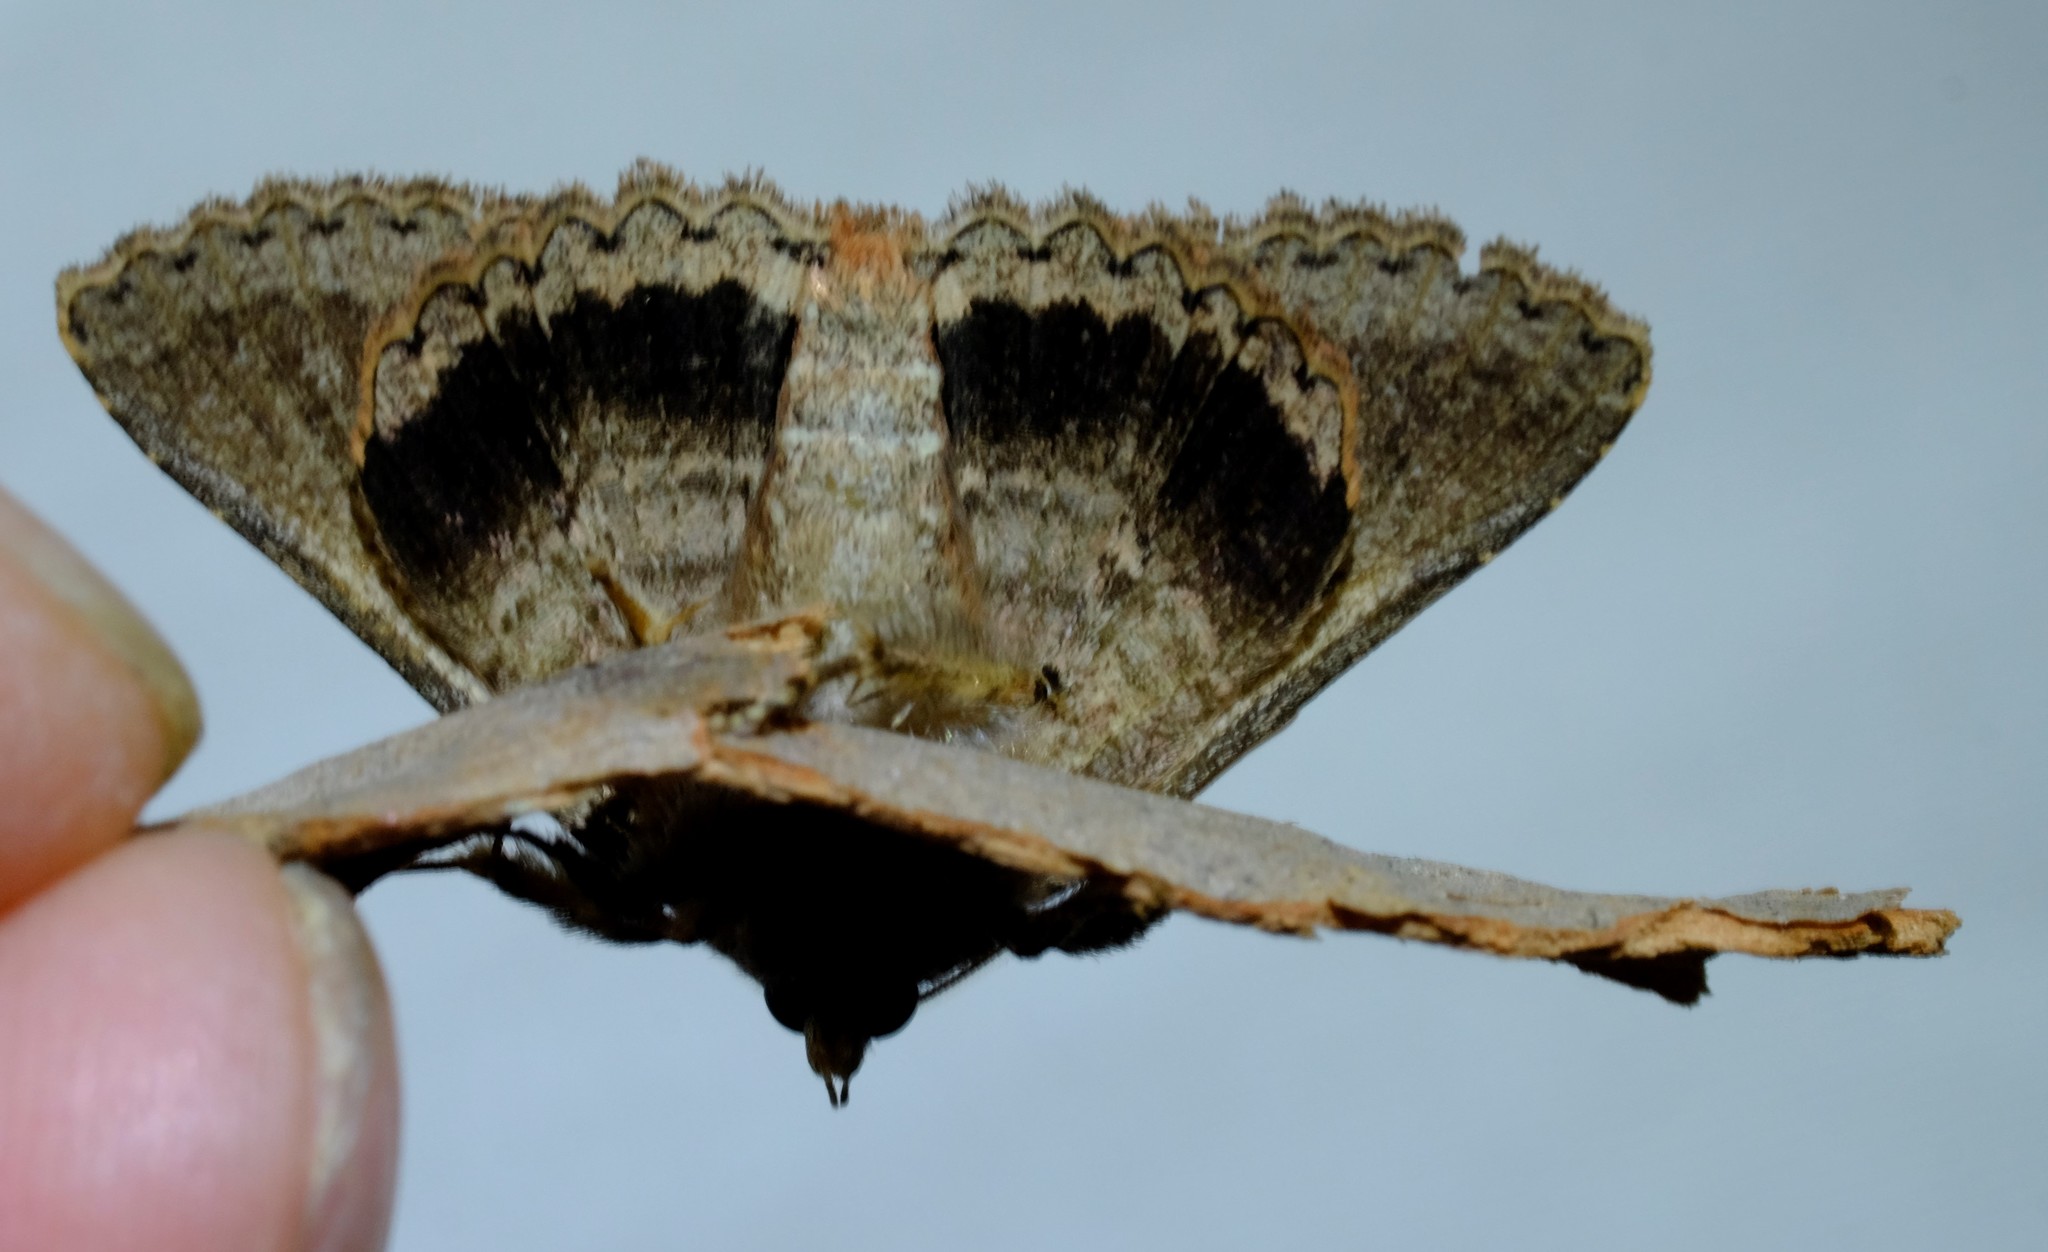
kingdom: Animalia
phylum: Arthropoda
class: Insecta
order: Lepidoptera
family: Erebidae
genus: Praxis
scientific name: Praxis porphyretica
